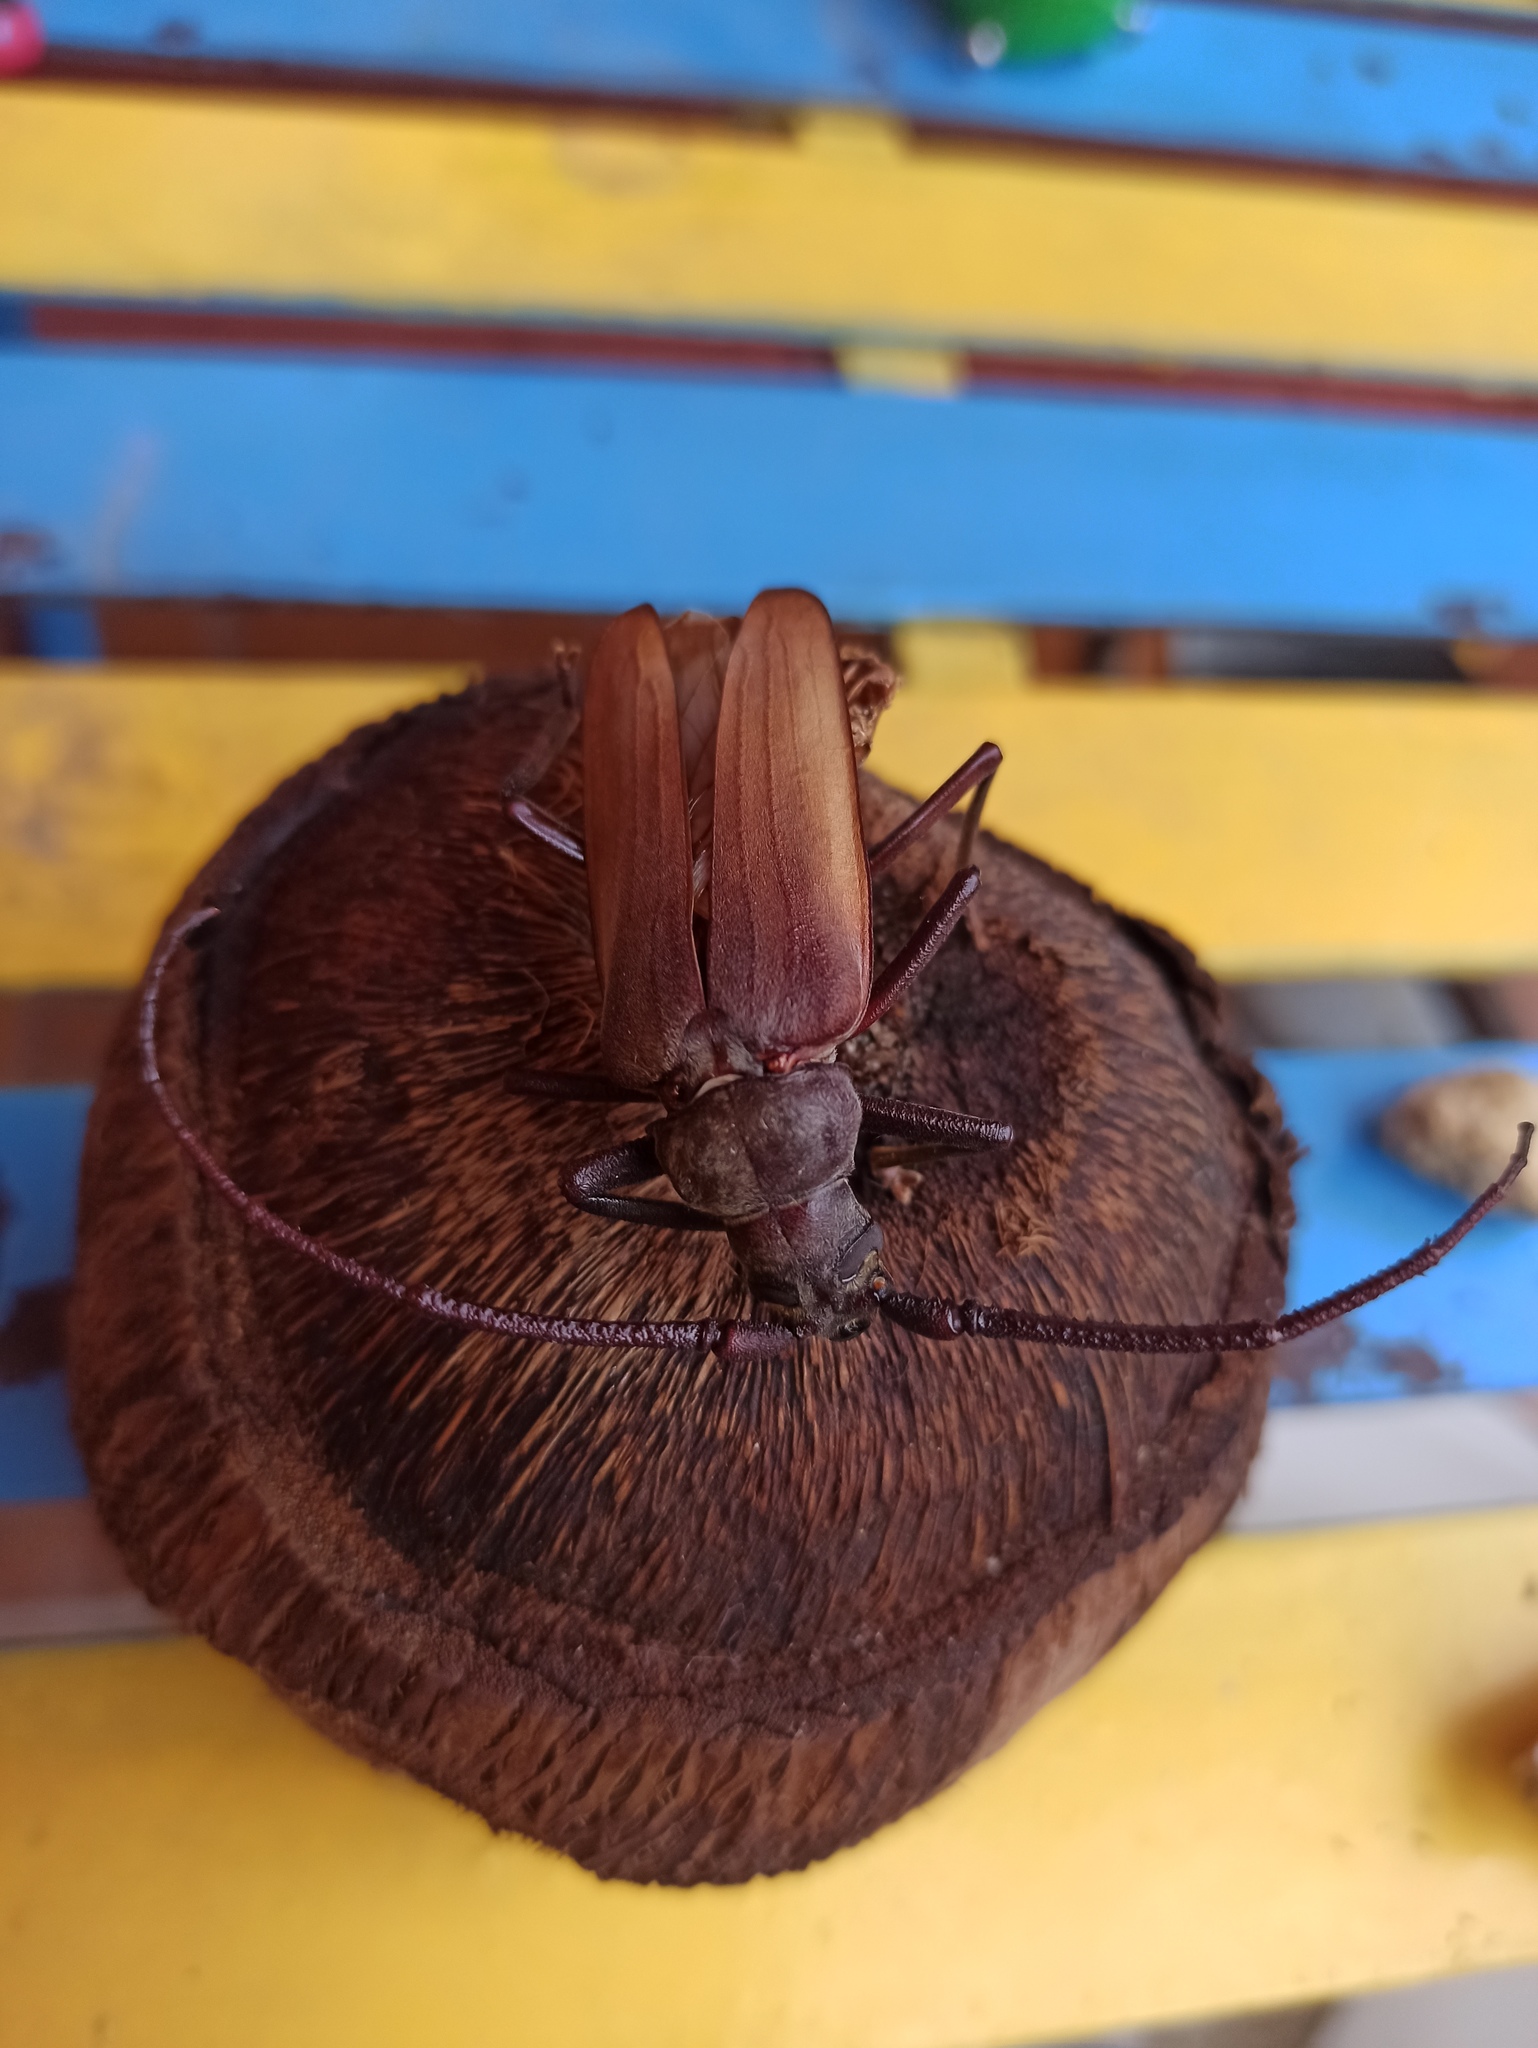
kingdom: Animalia
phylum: Arthropoda
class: Insecta
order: Coleoptera
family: Cerambycidae
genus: Aegosoma
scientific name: Aegosoma scabricorne
